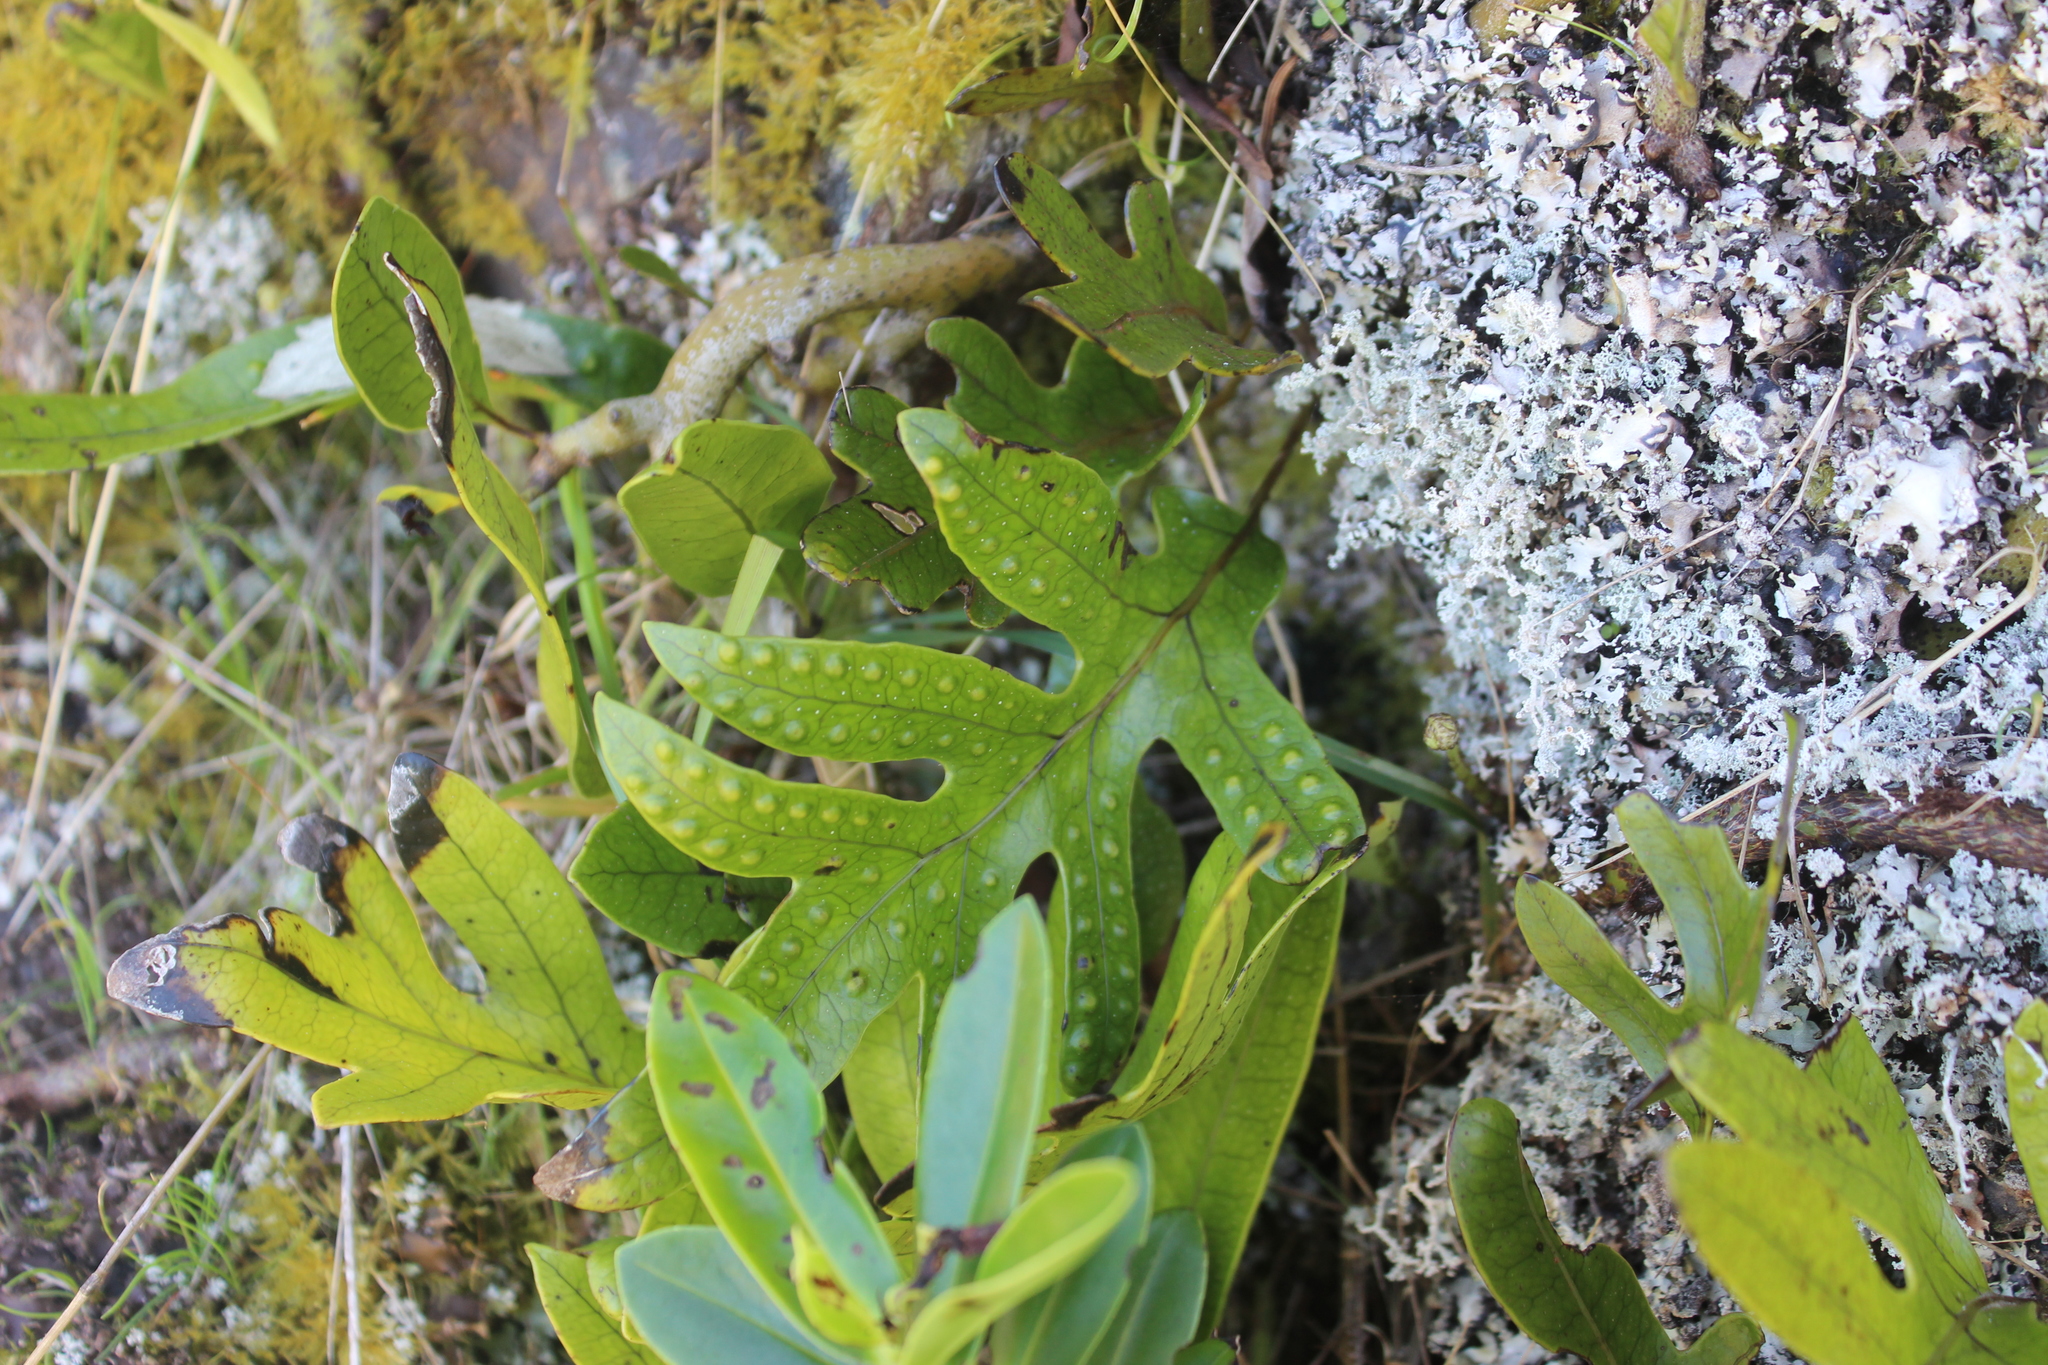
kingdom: Plantae
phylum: Tracheophyta
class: Polypodiopsida
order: Polypodiales
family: Polypodiaceae
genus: Lecanopteris
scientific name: Lecanopteris pustulata
